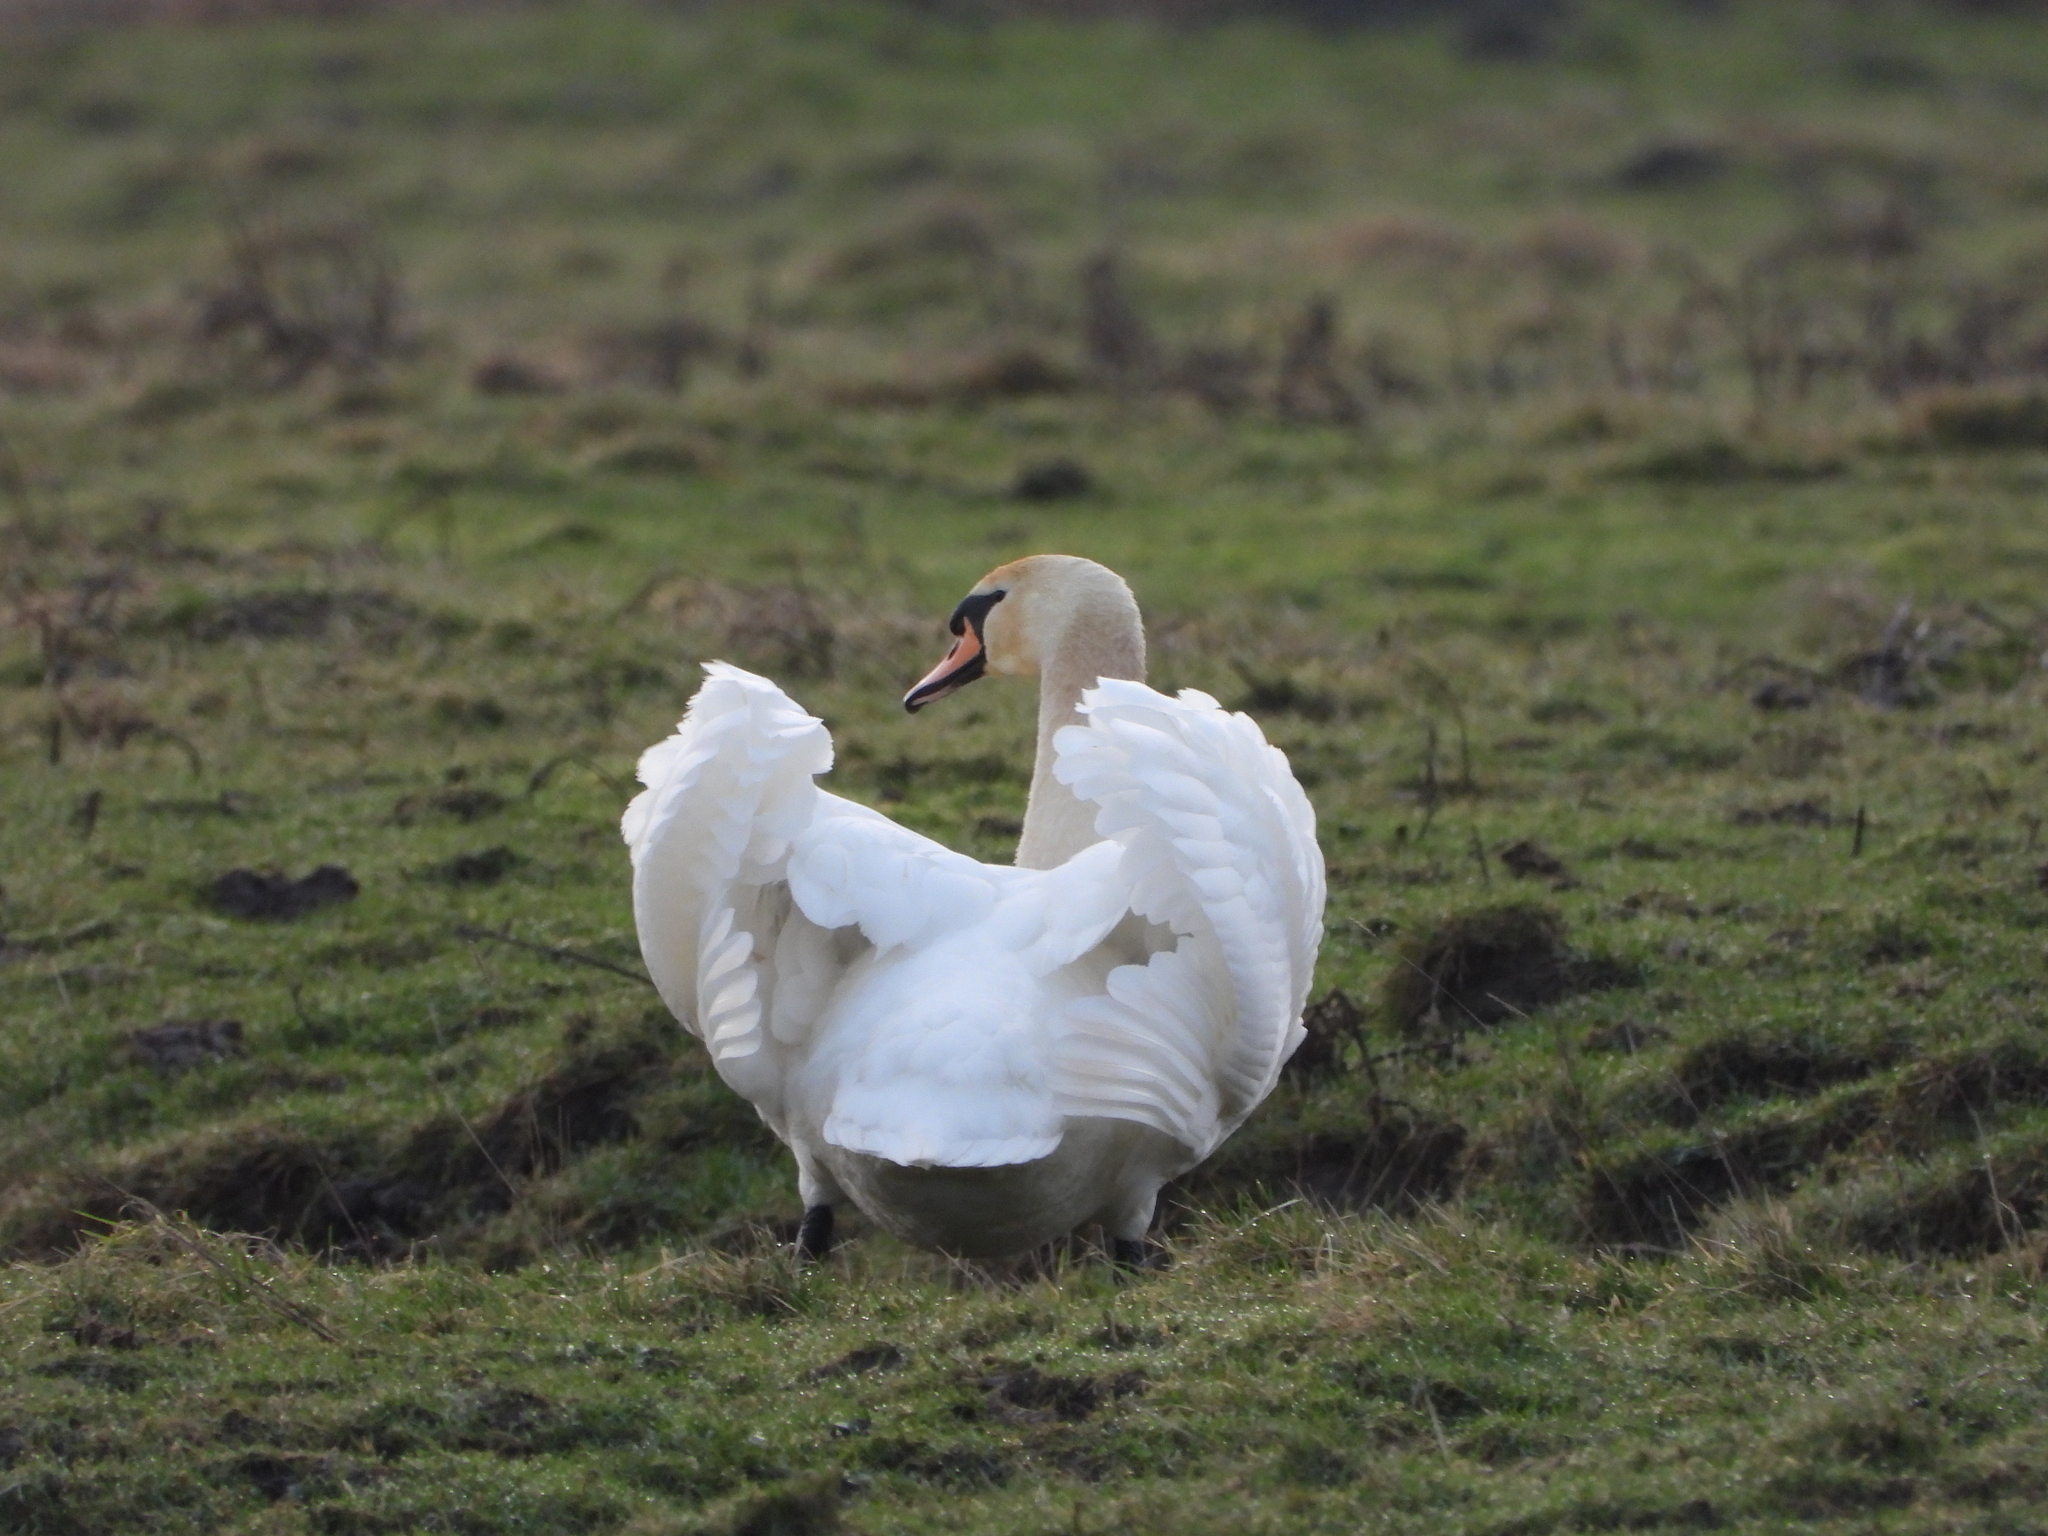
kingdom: Animalia
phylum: Chordata
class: Aves
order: Anseriformes
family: Anatidae
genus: Cygnus
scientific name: Cygnus olor
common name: Mute swan
